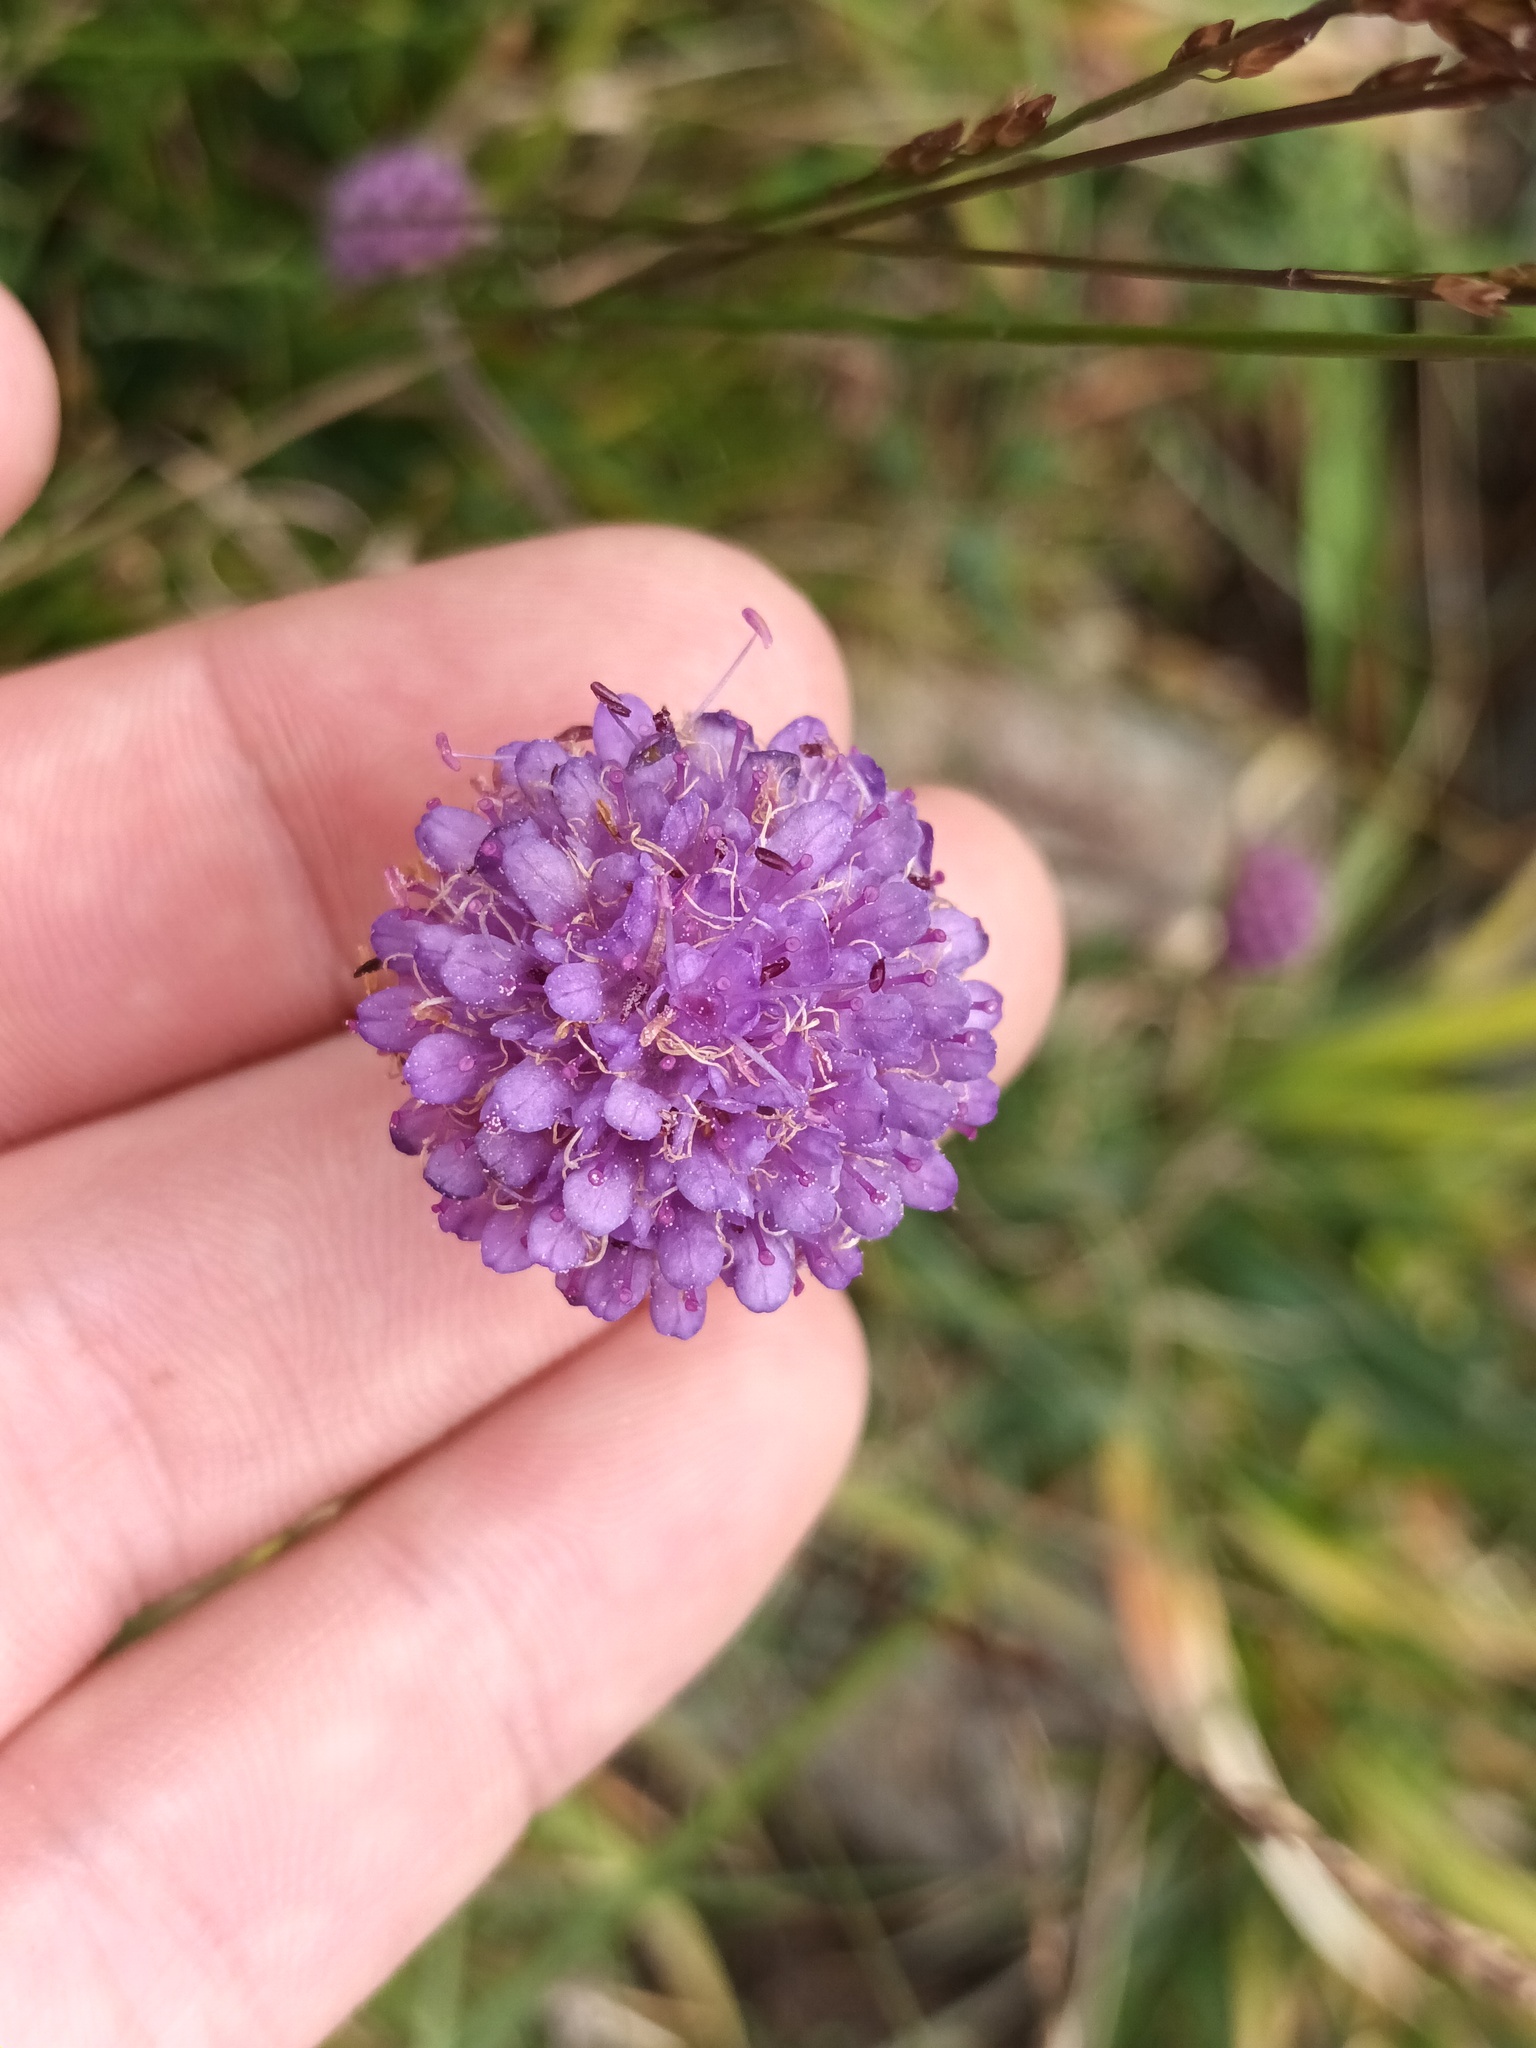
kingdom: Plantae
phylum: Tracheophyta
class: Magnoliopsida
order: Dipsacales
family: Caprifoliaceae
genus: Succisa
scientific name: Succisa pratensis
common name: Devil's-bit
